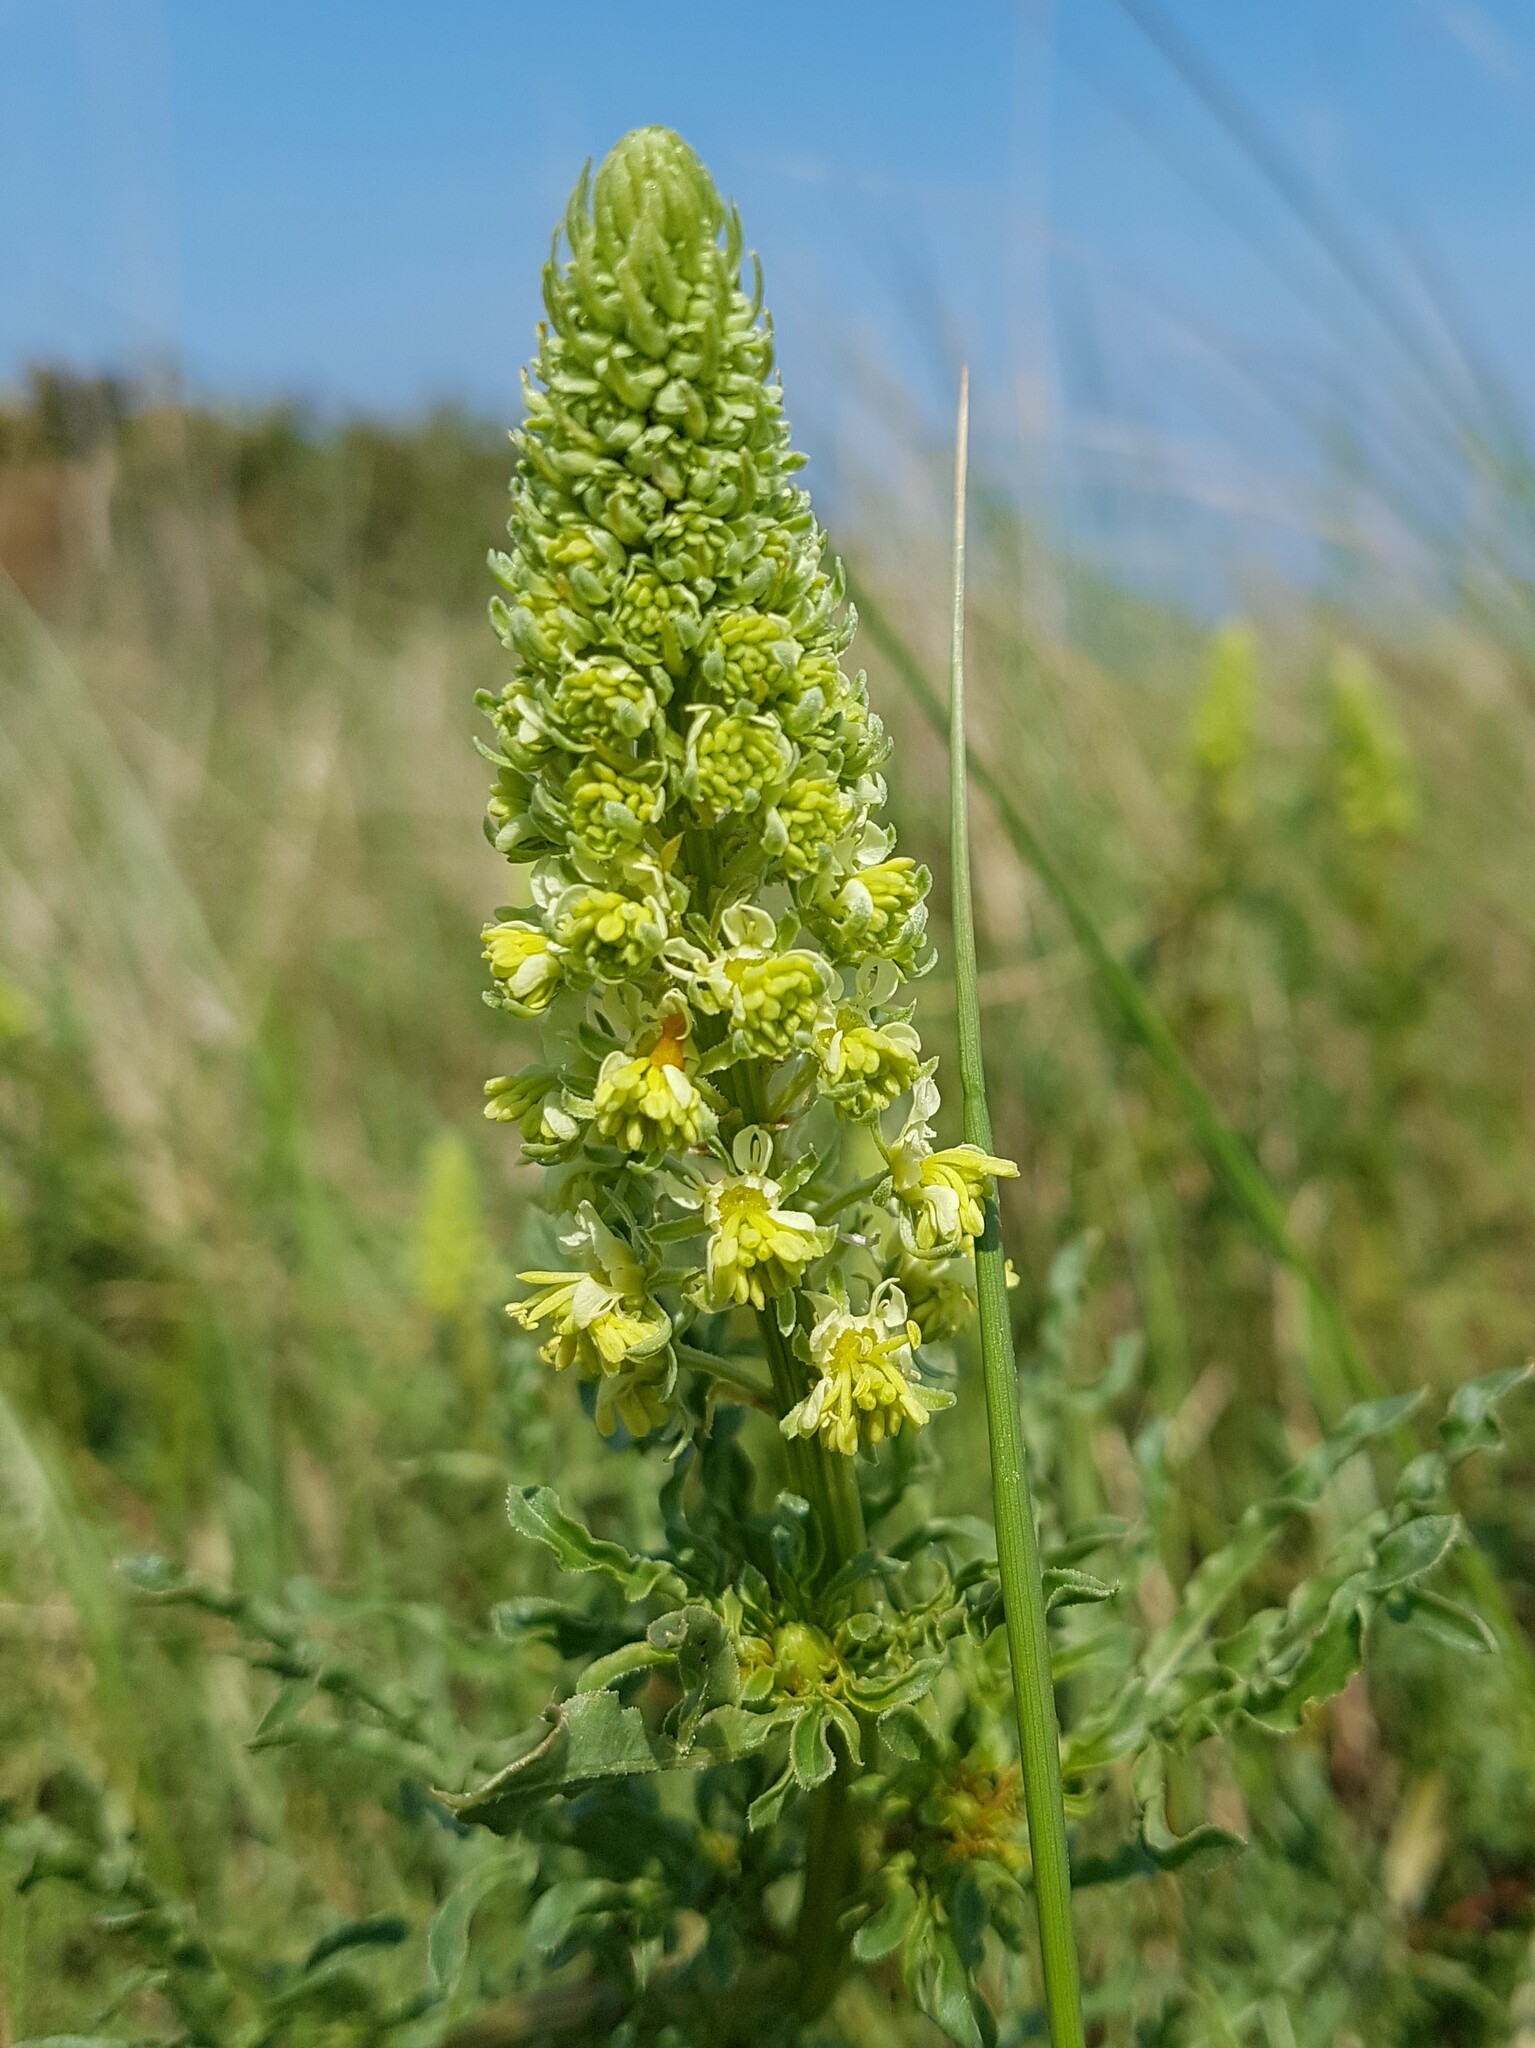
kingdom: Plantae
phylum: Tracheophyta
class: Magnoliopsida
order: Brassicales
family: Resedaceae
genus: Reseda
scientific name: Reseda lutea
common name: Wild mignonette
